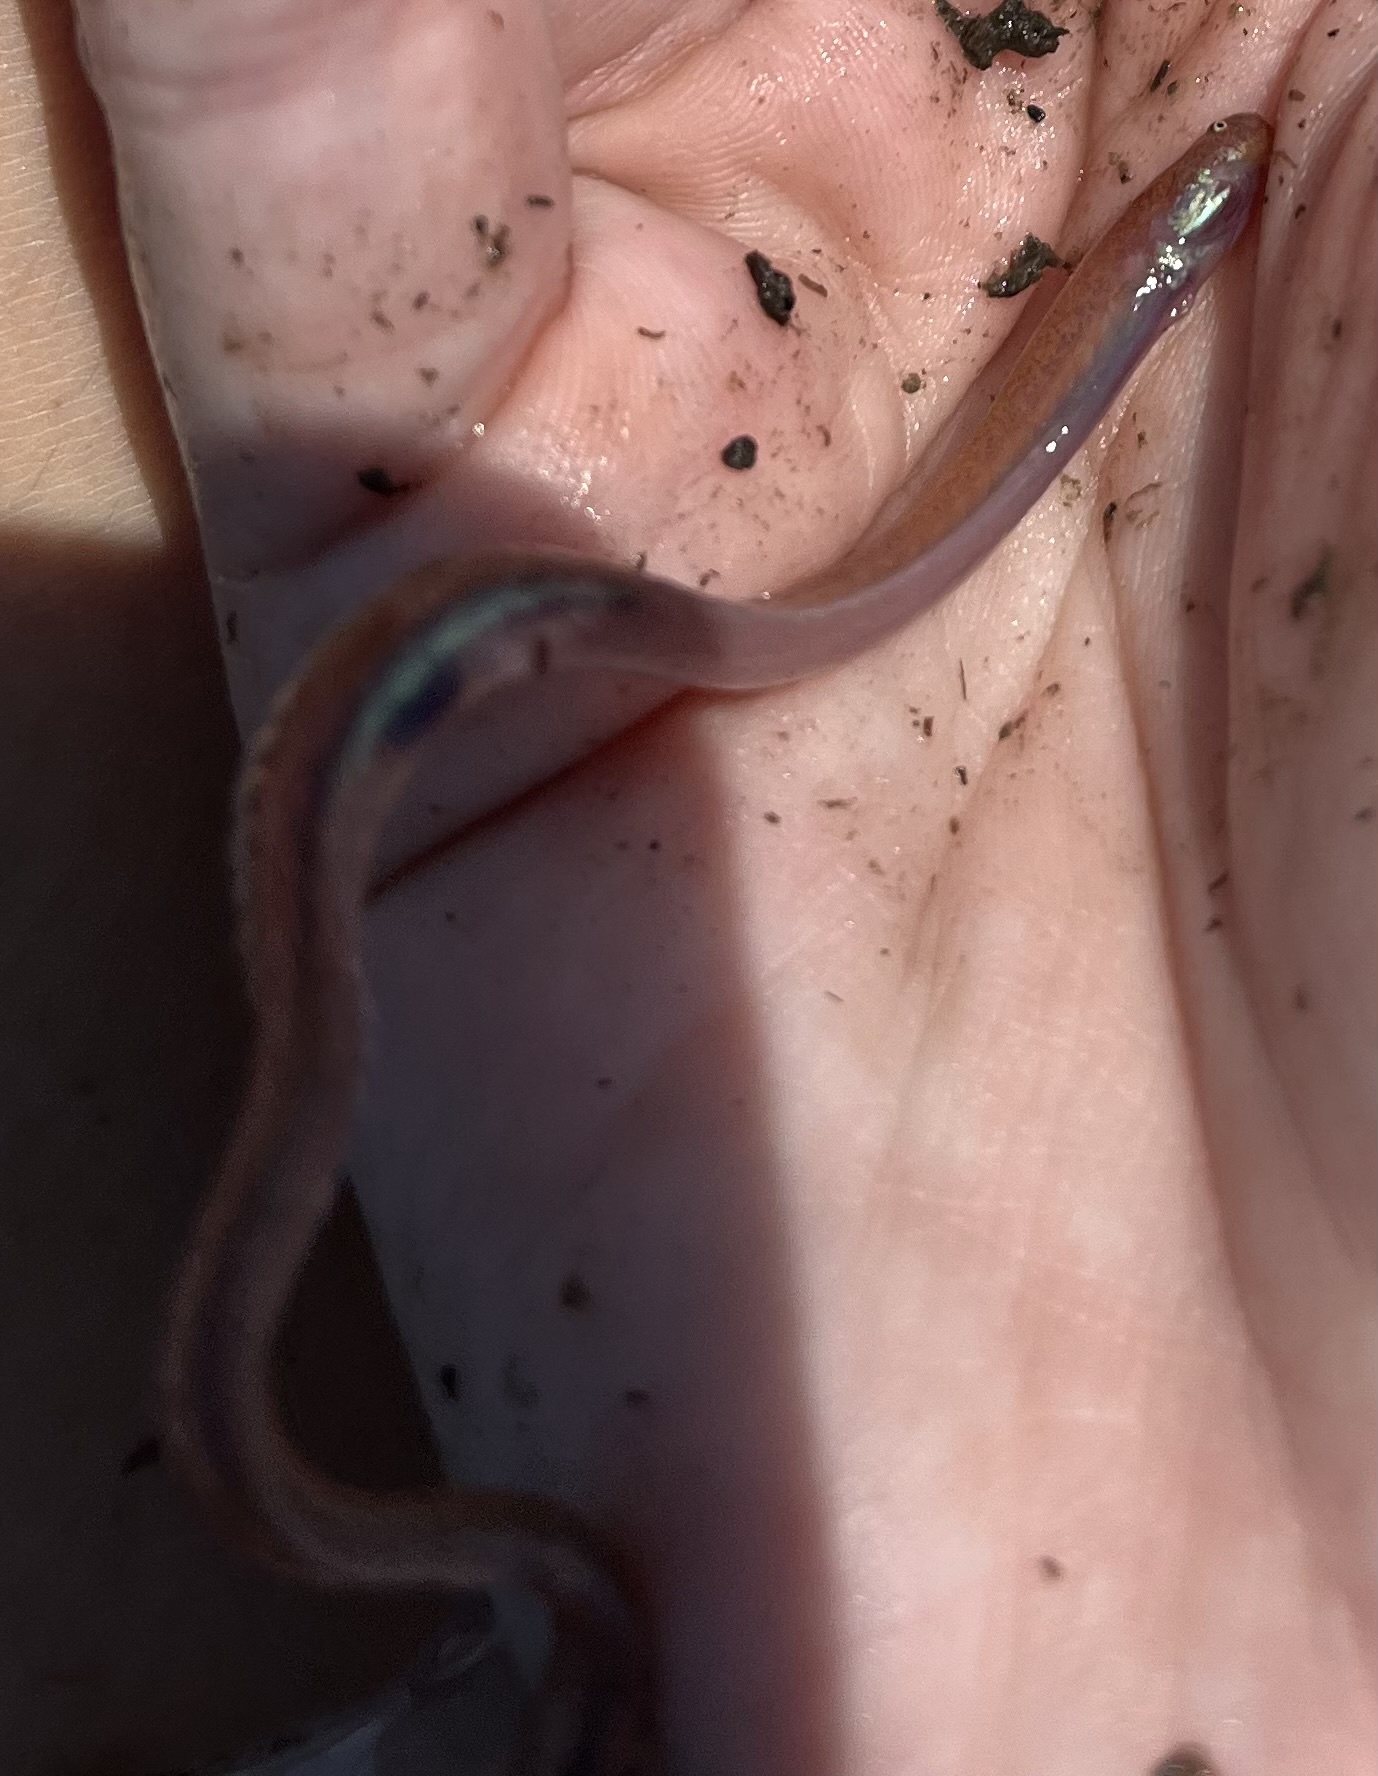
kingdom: Animalia
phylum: Chordata
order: Perciformes
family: Microdesmidae
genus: Microdesmus
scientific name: Microdesmus longipinnis
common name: Pink wormfish
